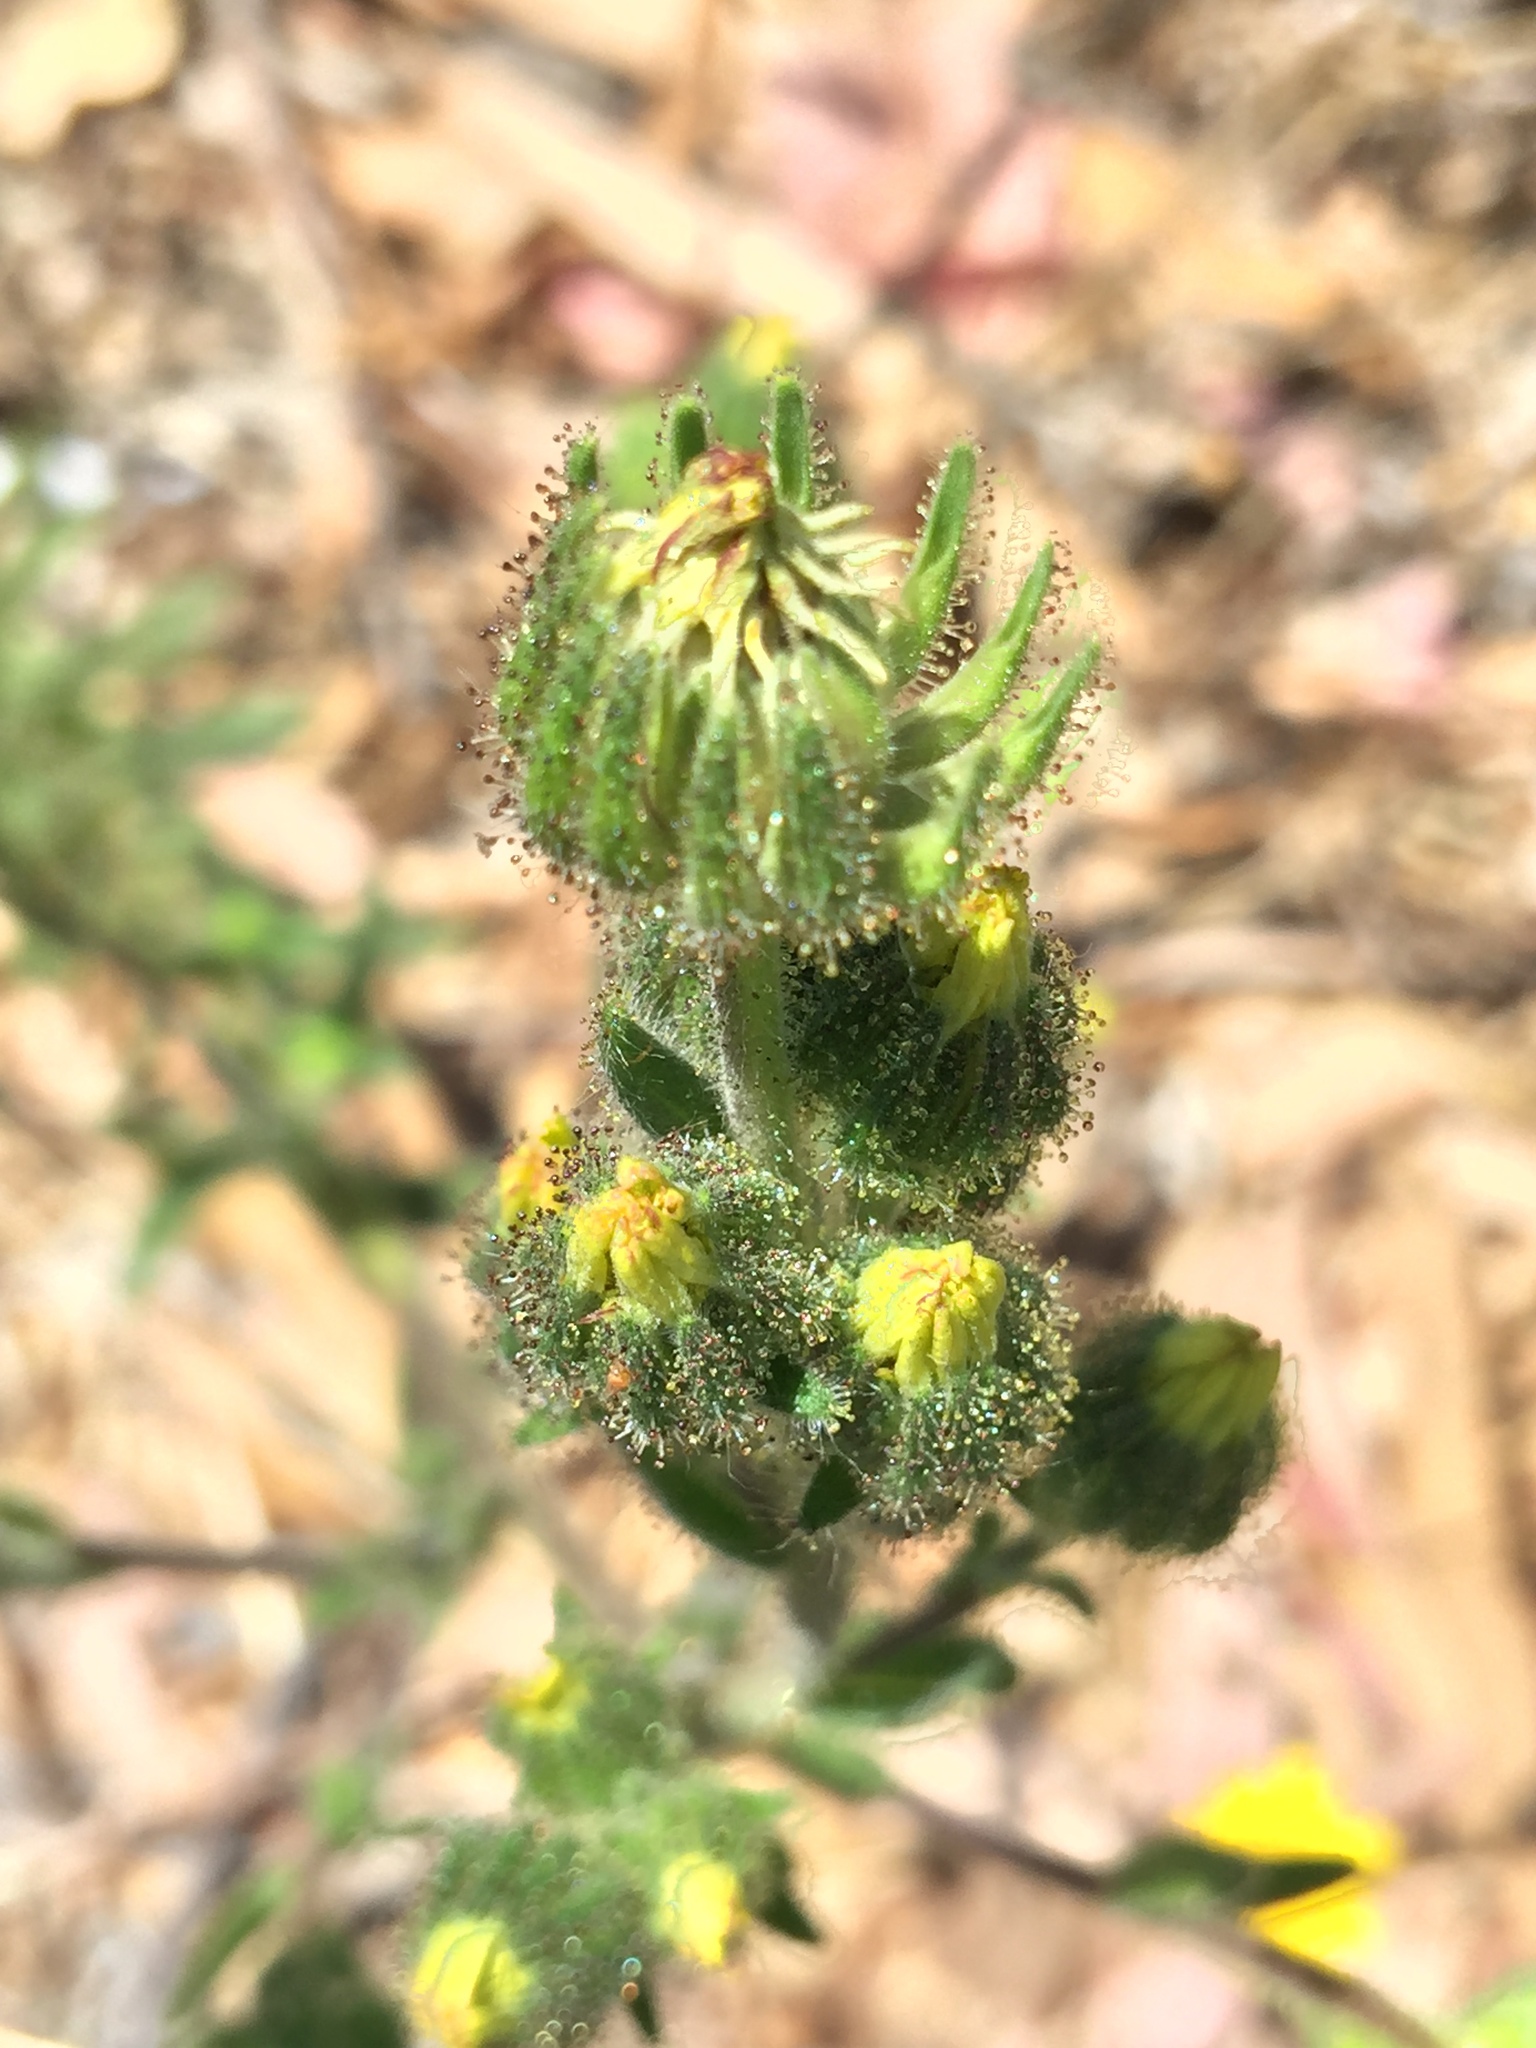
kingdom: Plantae
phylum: Tracheophyta
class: Magnoliopsida
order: Asterales
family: Asteraceae
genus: Madia
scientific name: Madia sativa
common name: Coast tarweed
